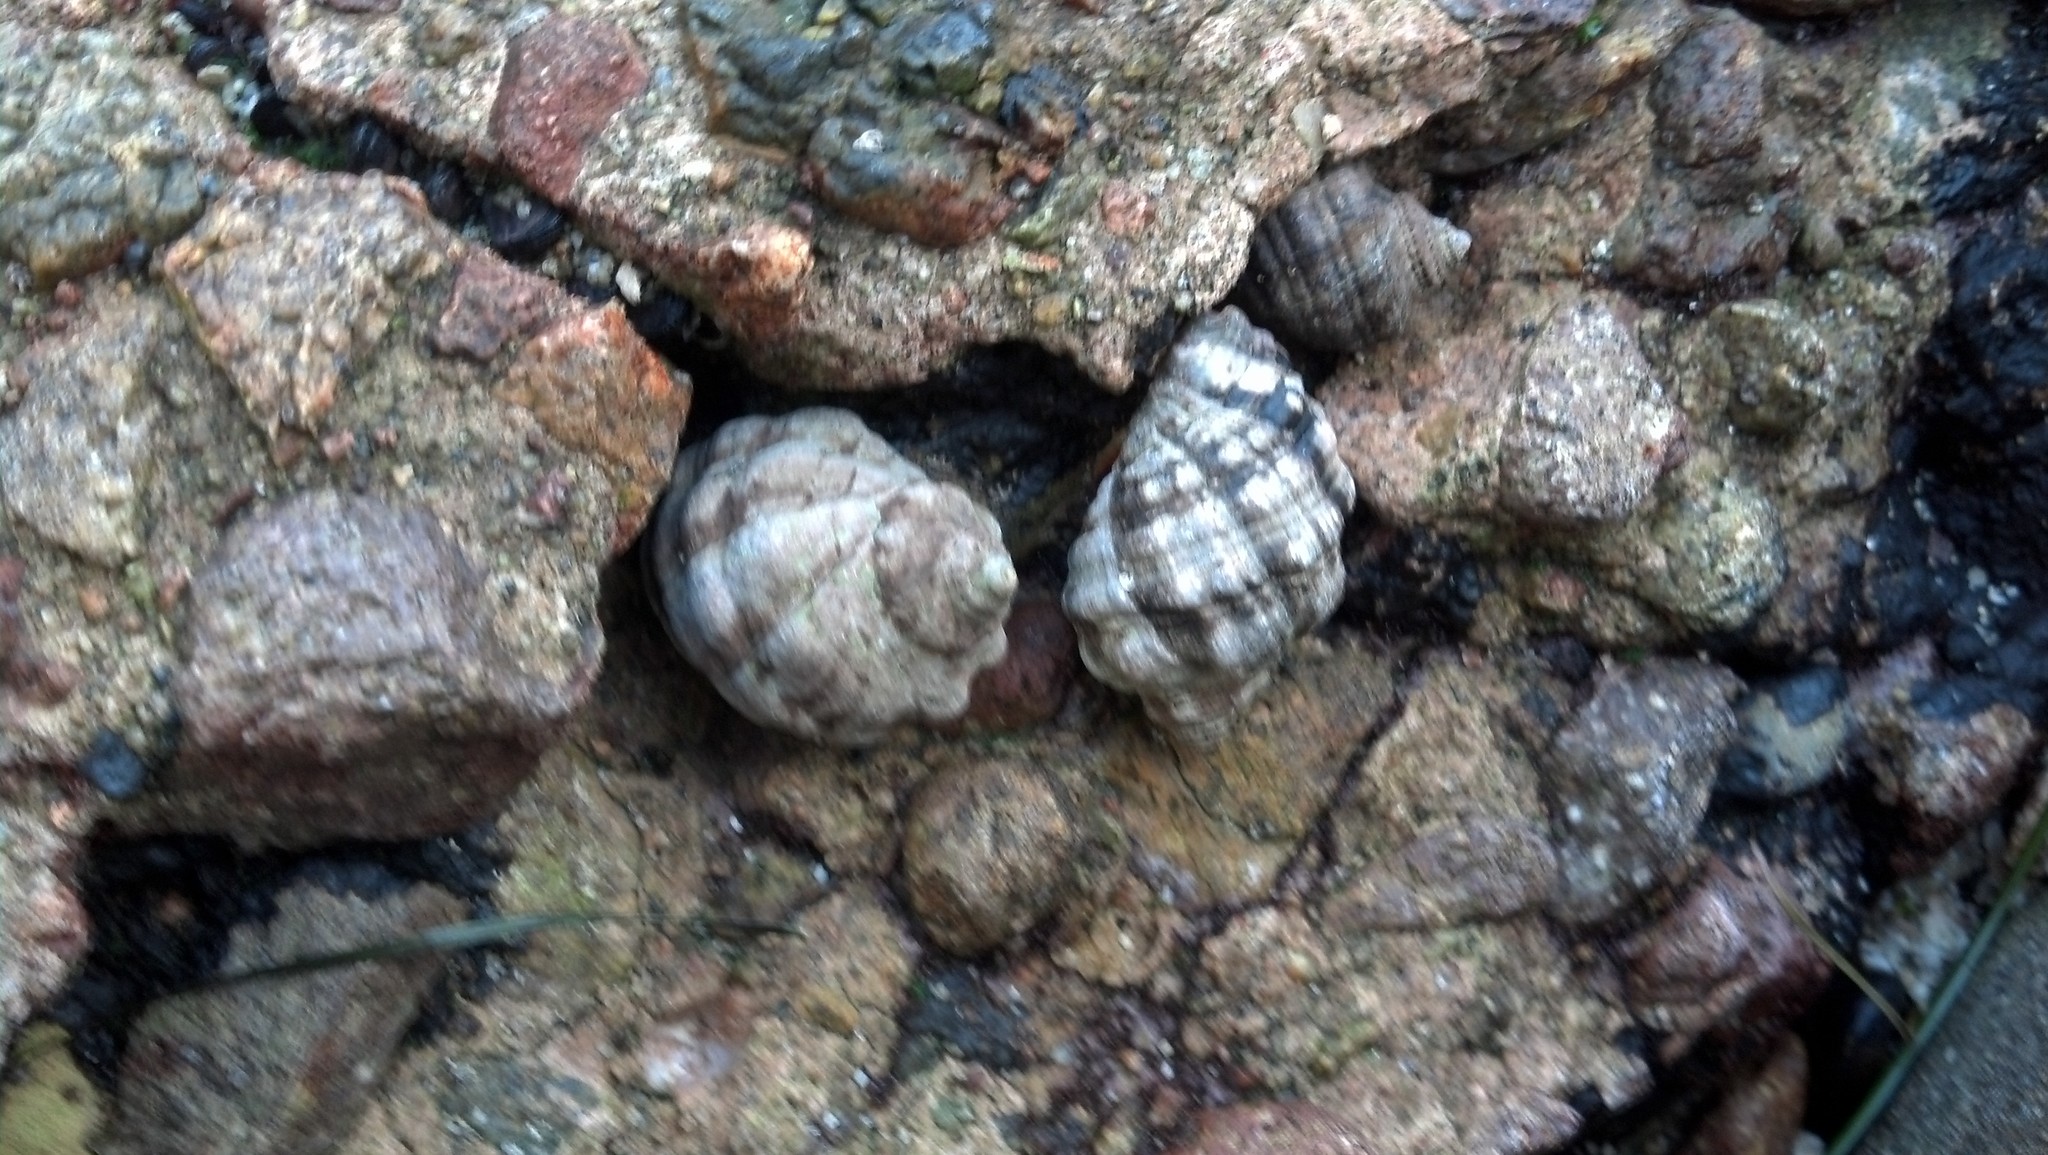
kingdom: Animalia
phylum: Mollusca
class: Gastropoda
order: Neogastropoda
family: Muricidae
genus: Mexacanthina
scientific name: Mexacanthina lugubris
